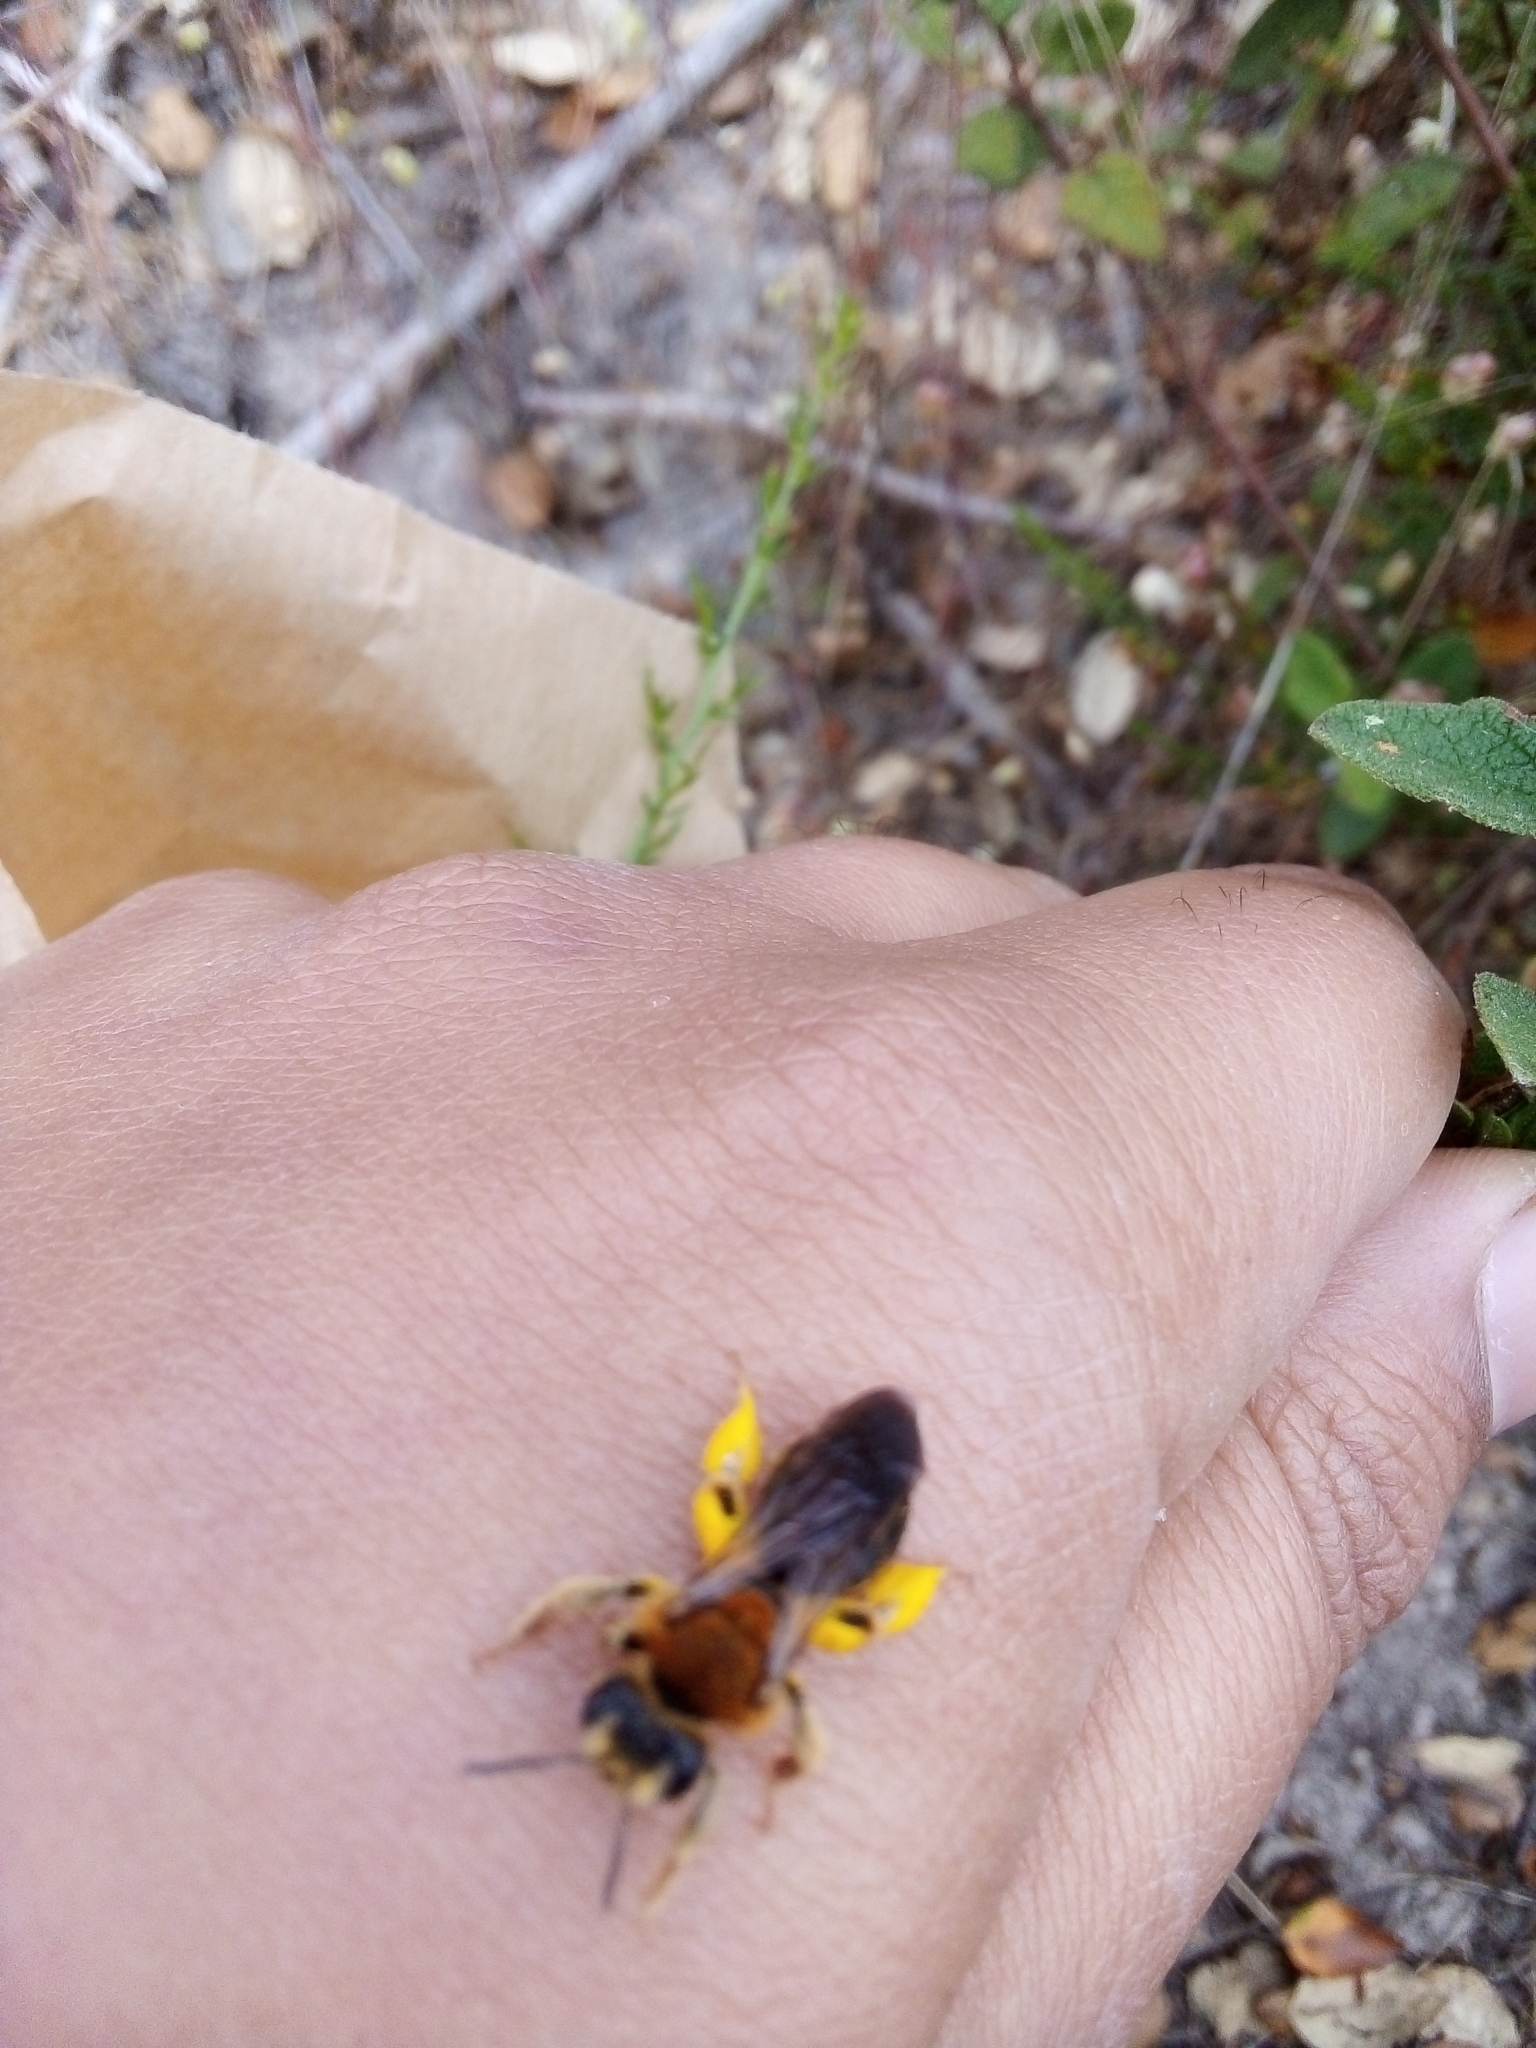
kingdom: Animalia
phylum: Arthropoda
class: Insecta
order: Hymenoptera
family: Andrenidae
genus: Andrena
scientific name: Andrena
